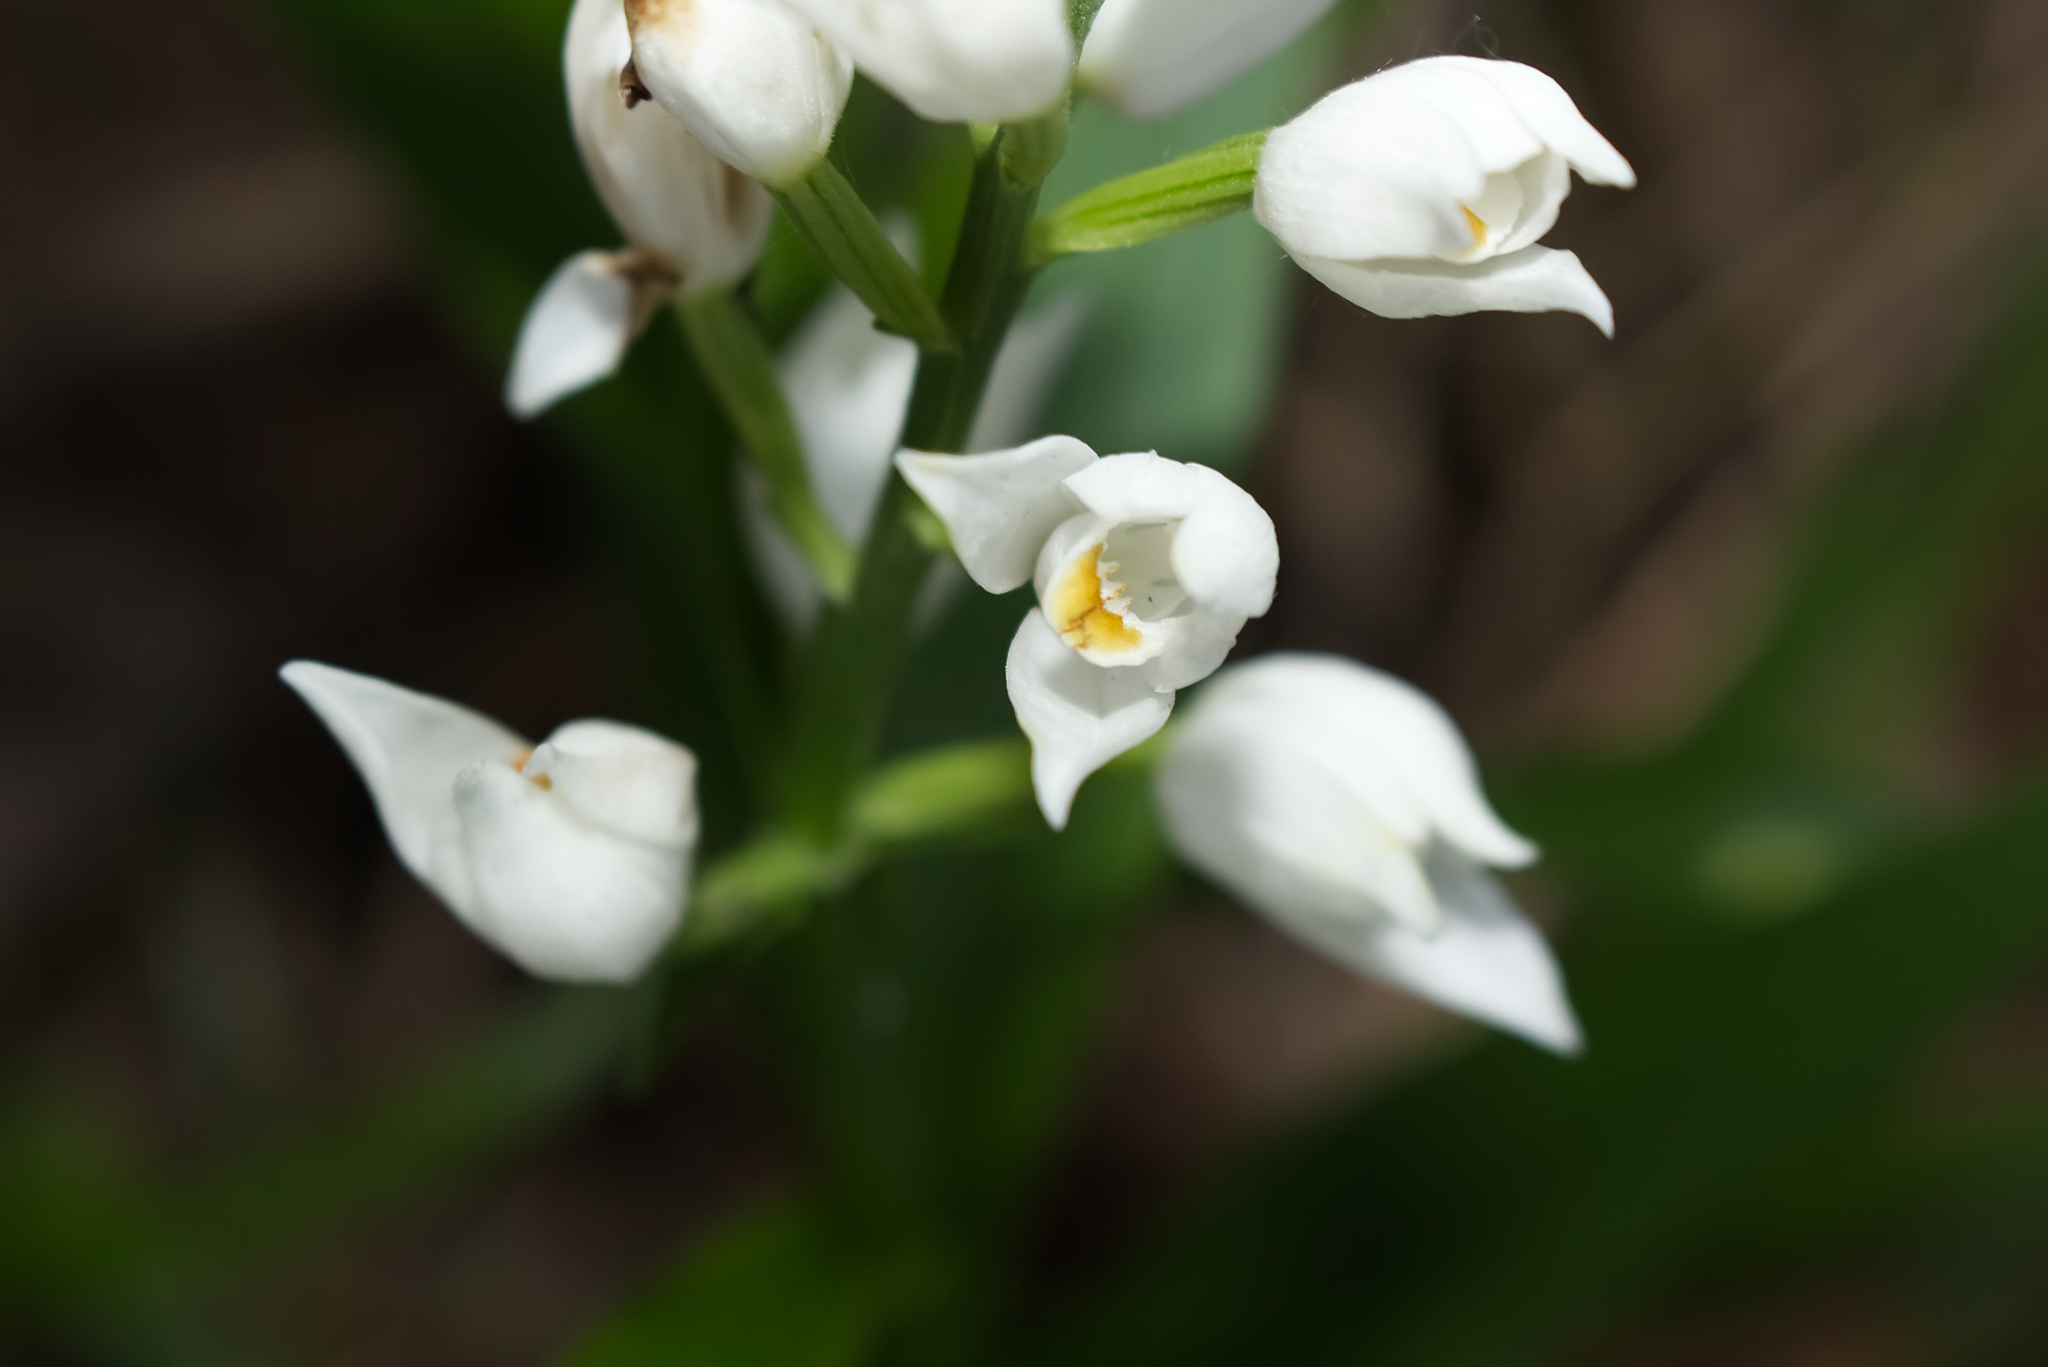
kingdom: Plantae
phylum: Tracheophyta
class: Liliopsida
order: Asparagales
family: Orchidaceae
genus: Cephalanthera
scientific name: Cephalanthera longifolia
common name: Narrow-leaved helleborine
